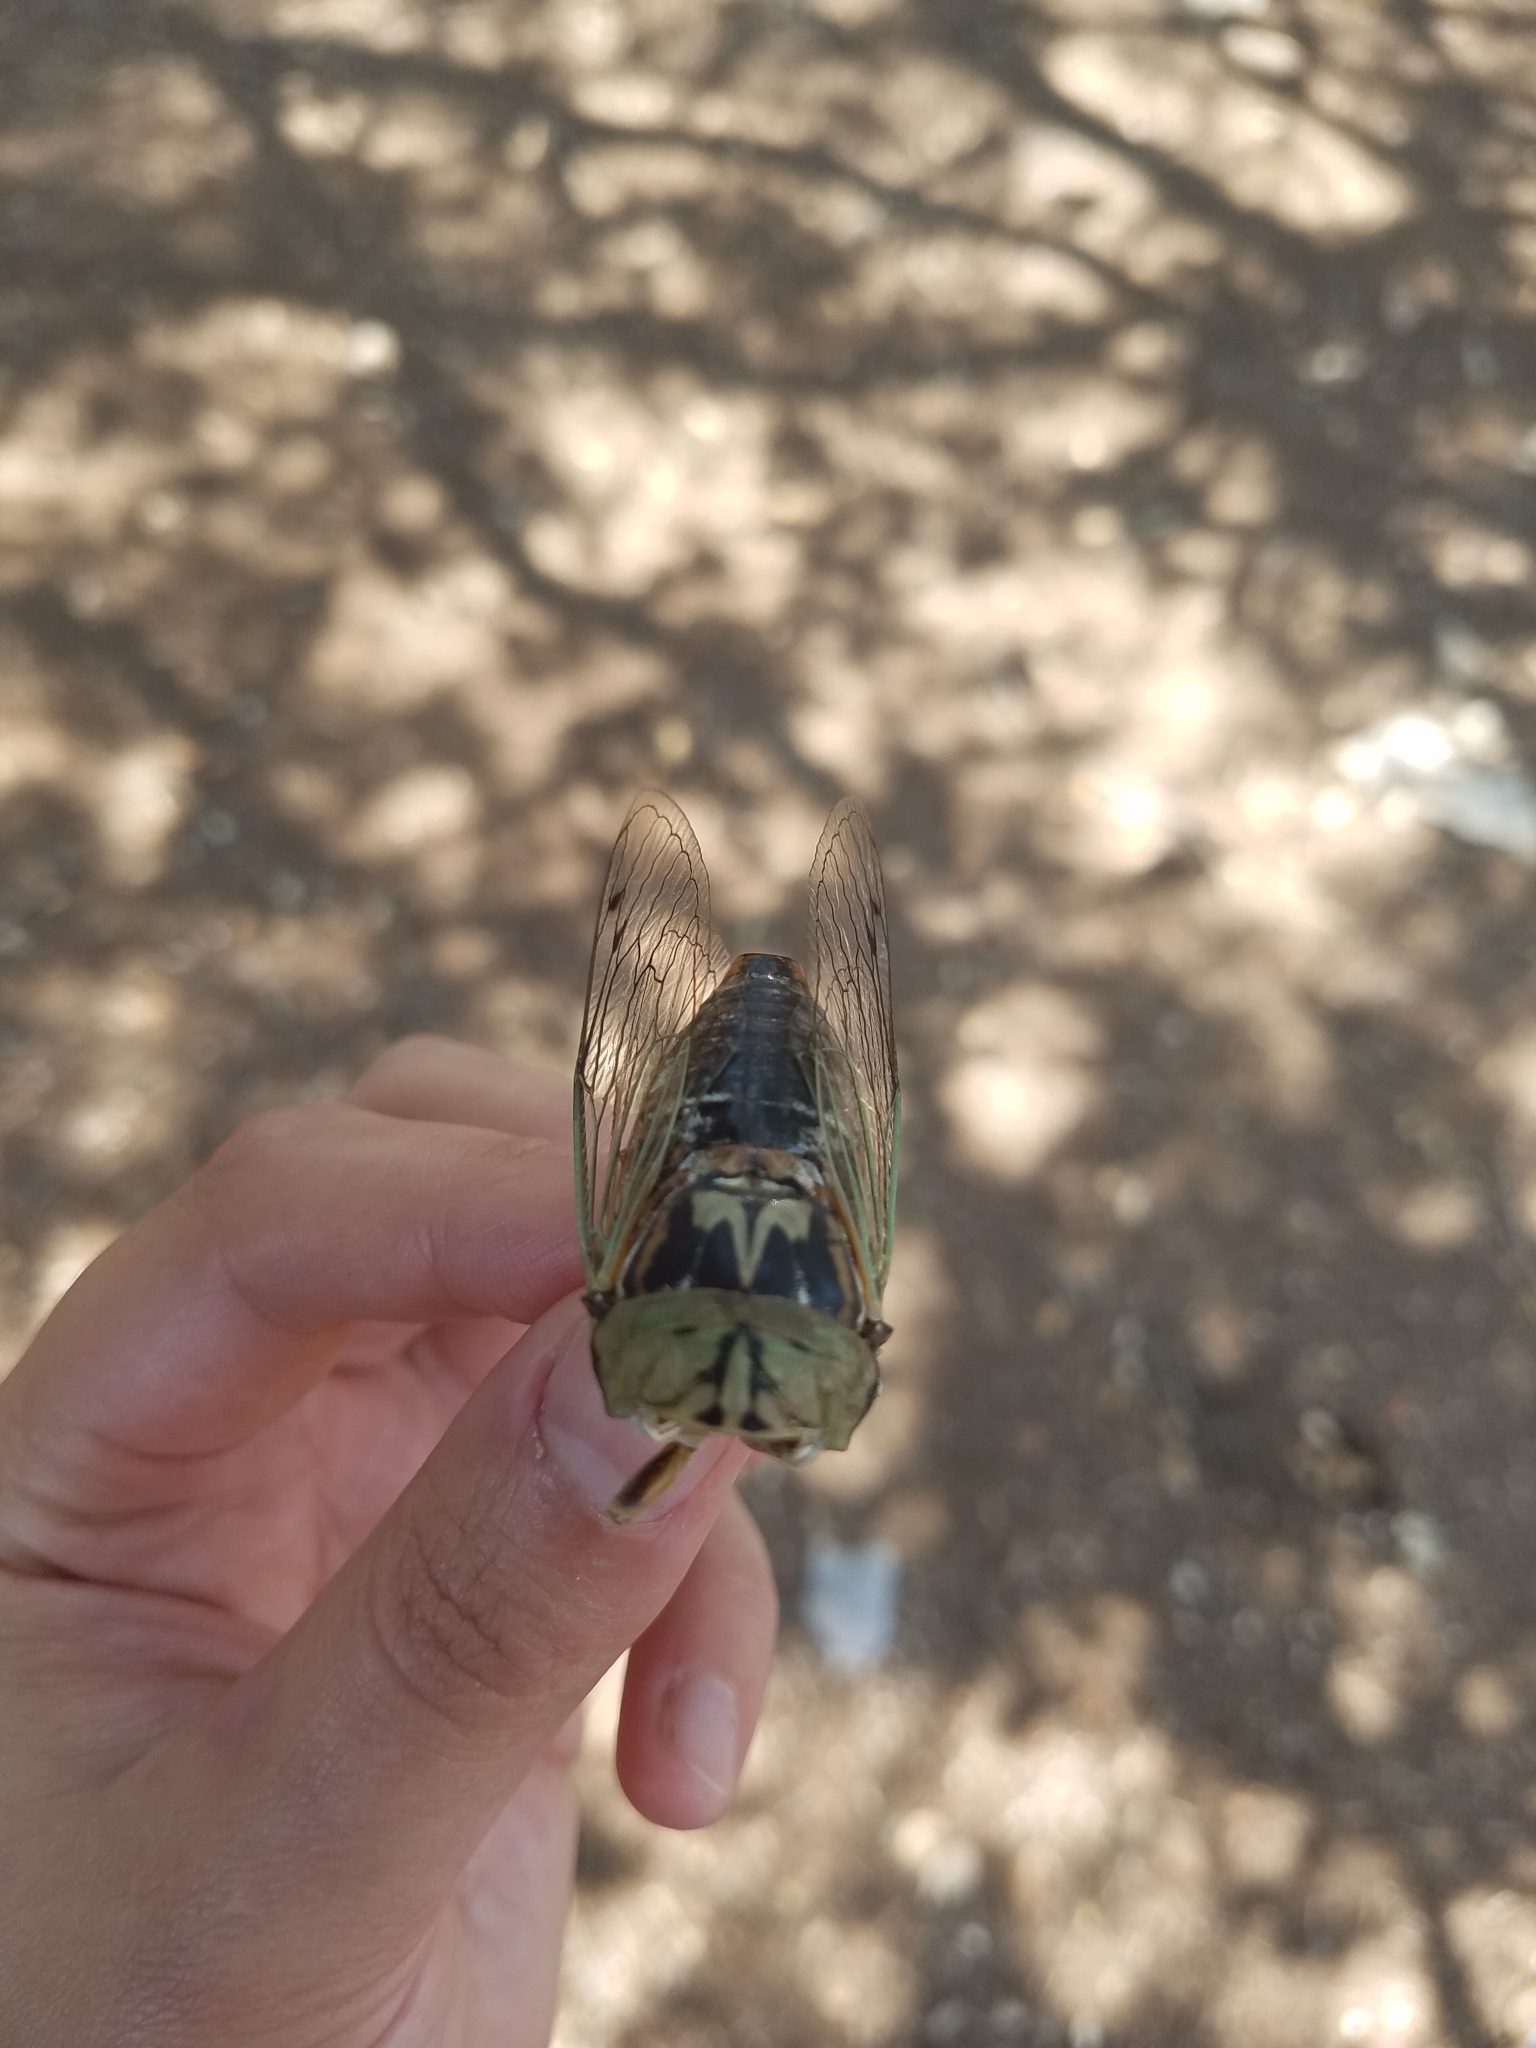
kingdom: Animalia
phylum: Arthropoda
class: Insecta
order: Hemiptera
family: Cicadidae
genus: Megatibicen
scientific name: Megatibicen resh
